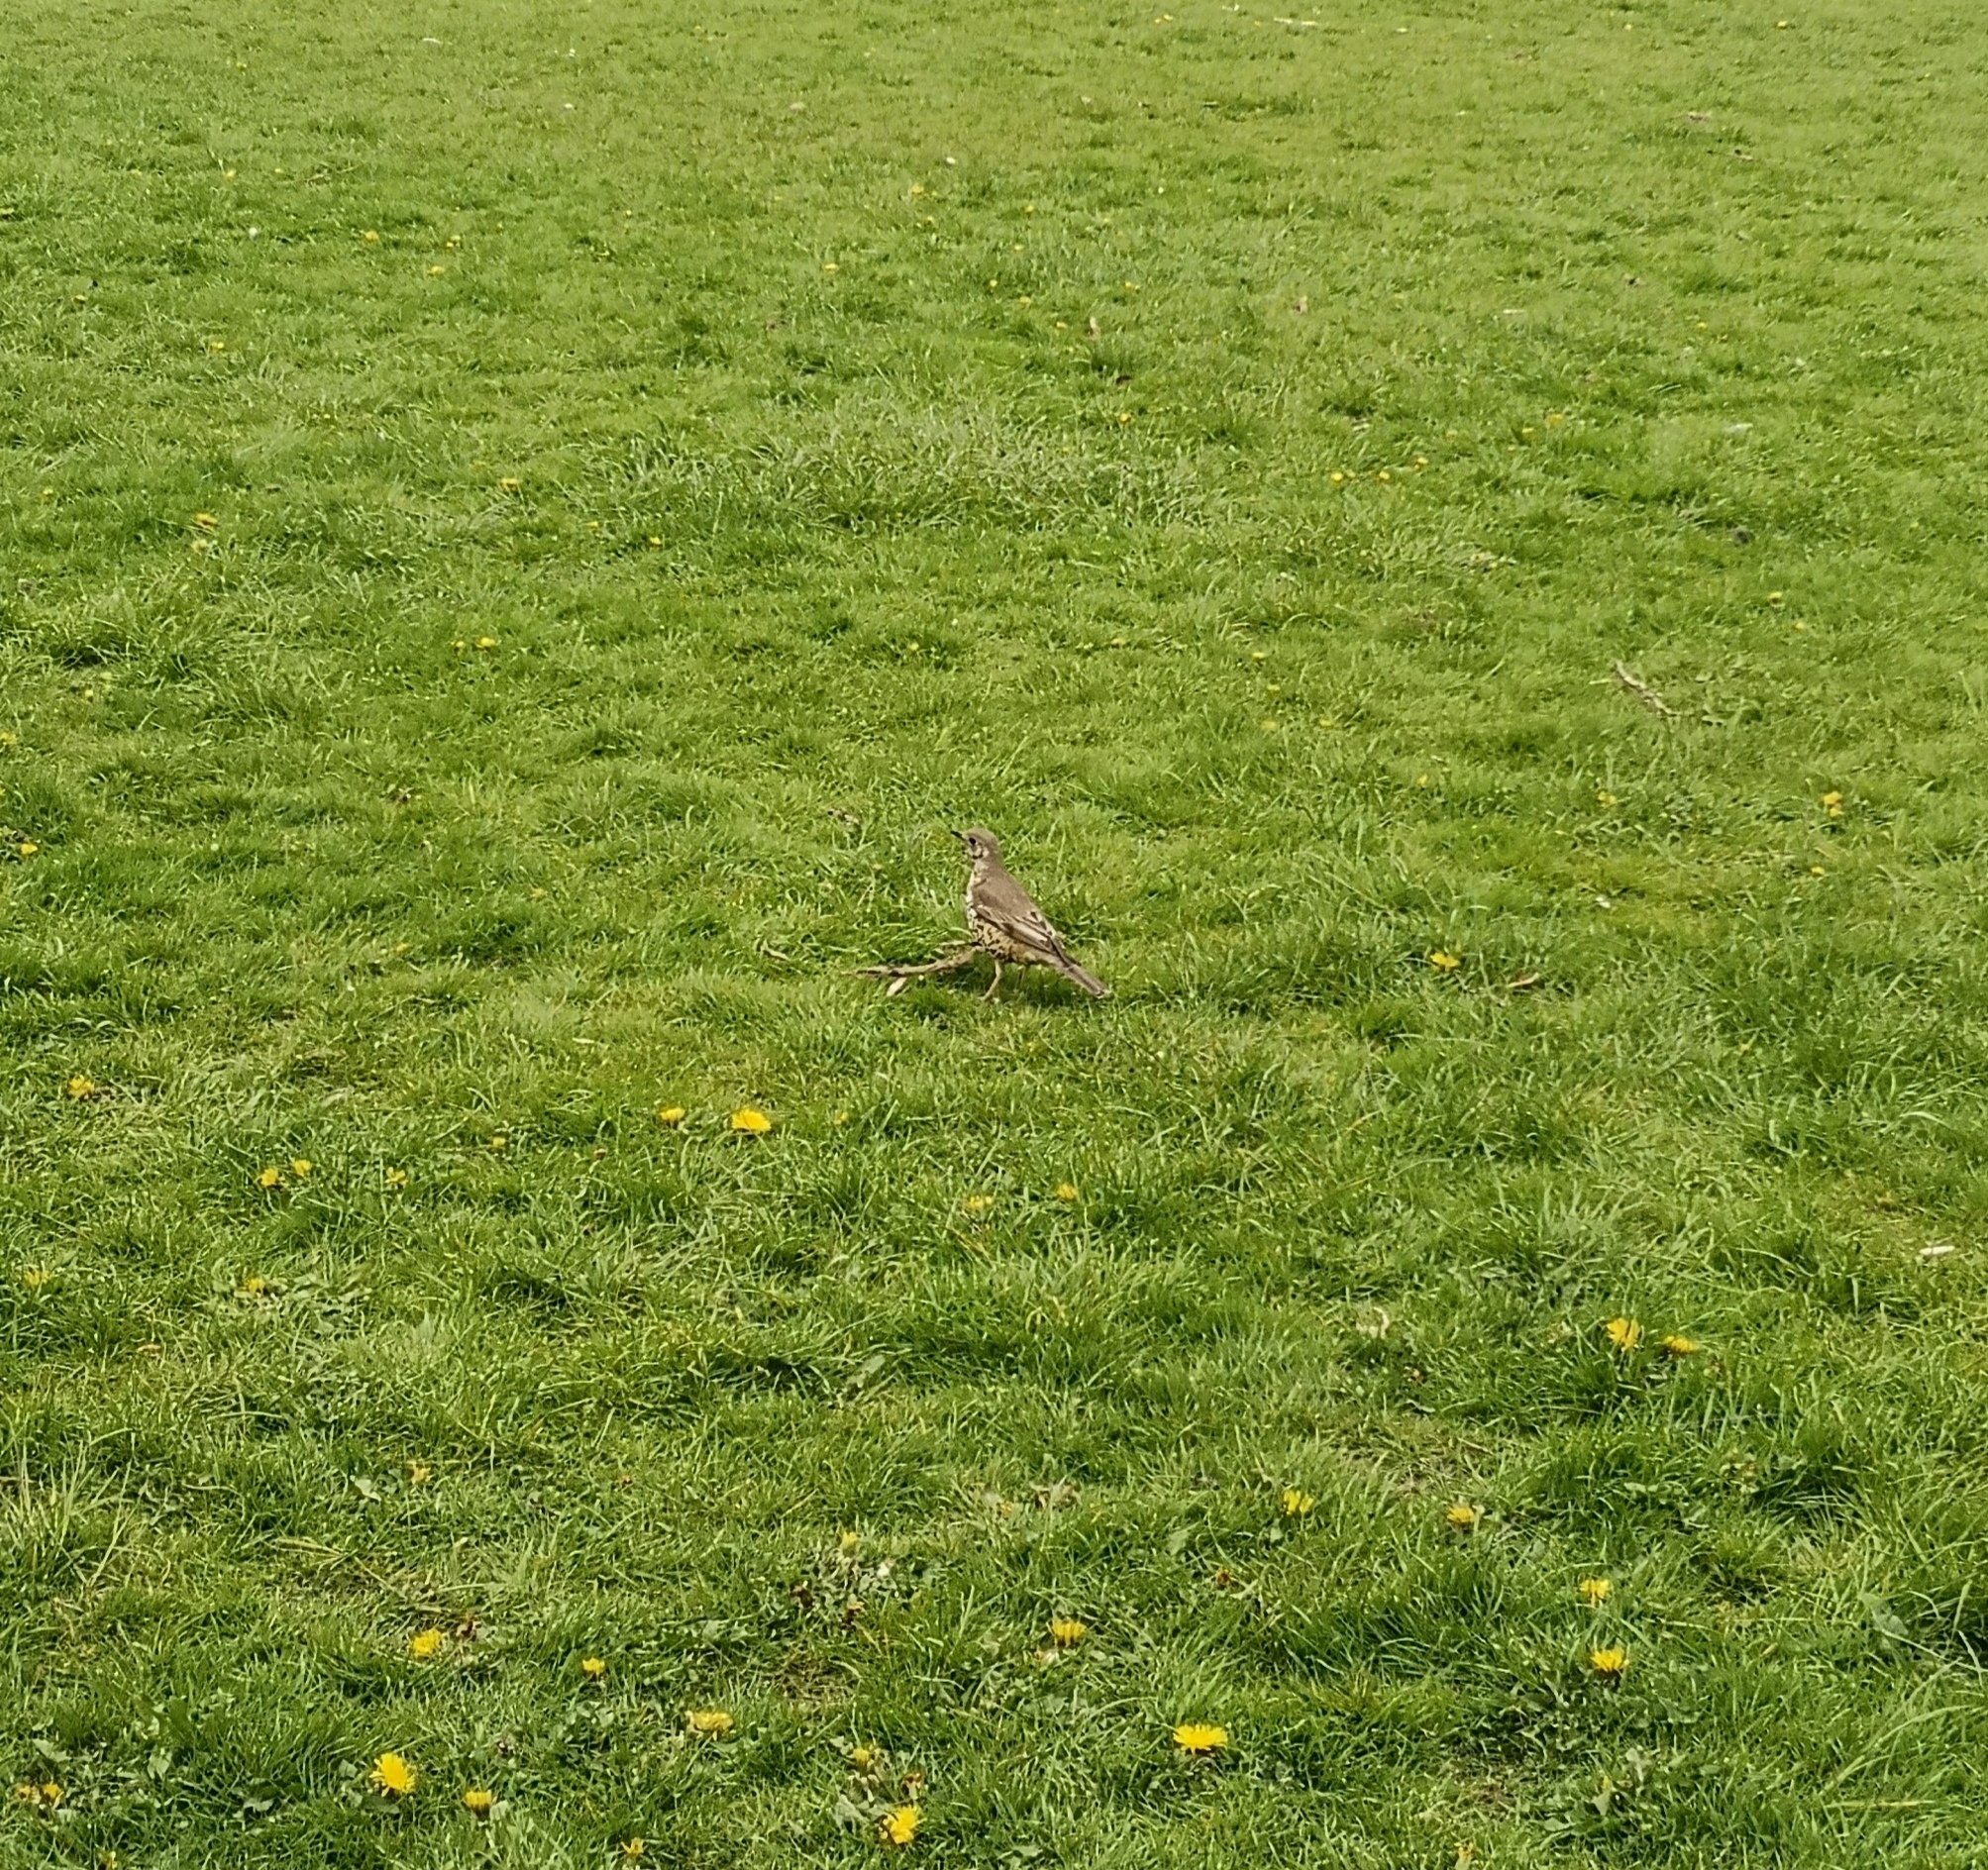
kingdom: Animalia
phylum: Chordata
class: Aves
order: Passeriformes
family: Turdidae
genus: Turdus
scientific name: Turdus viscivorus
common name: Mistle thrush
